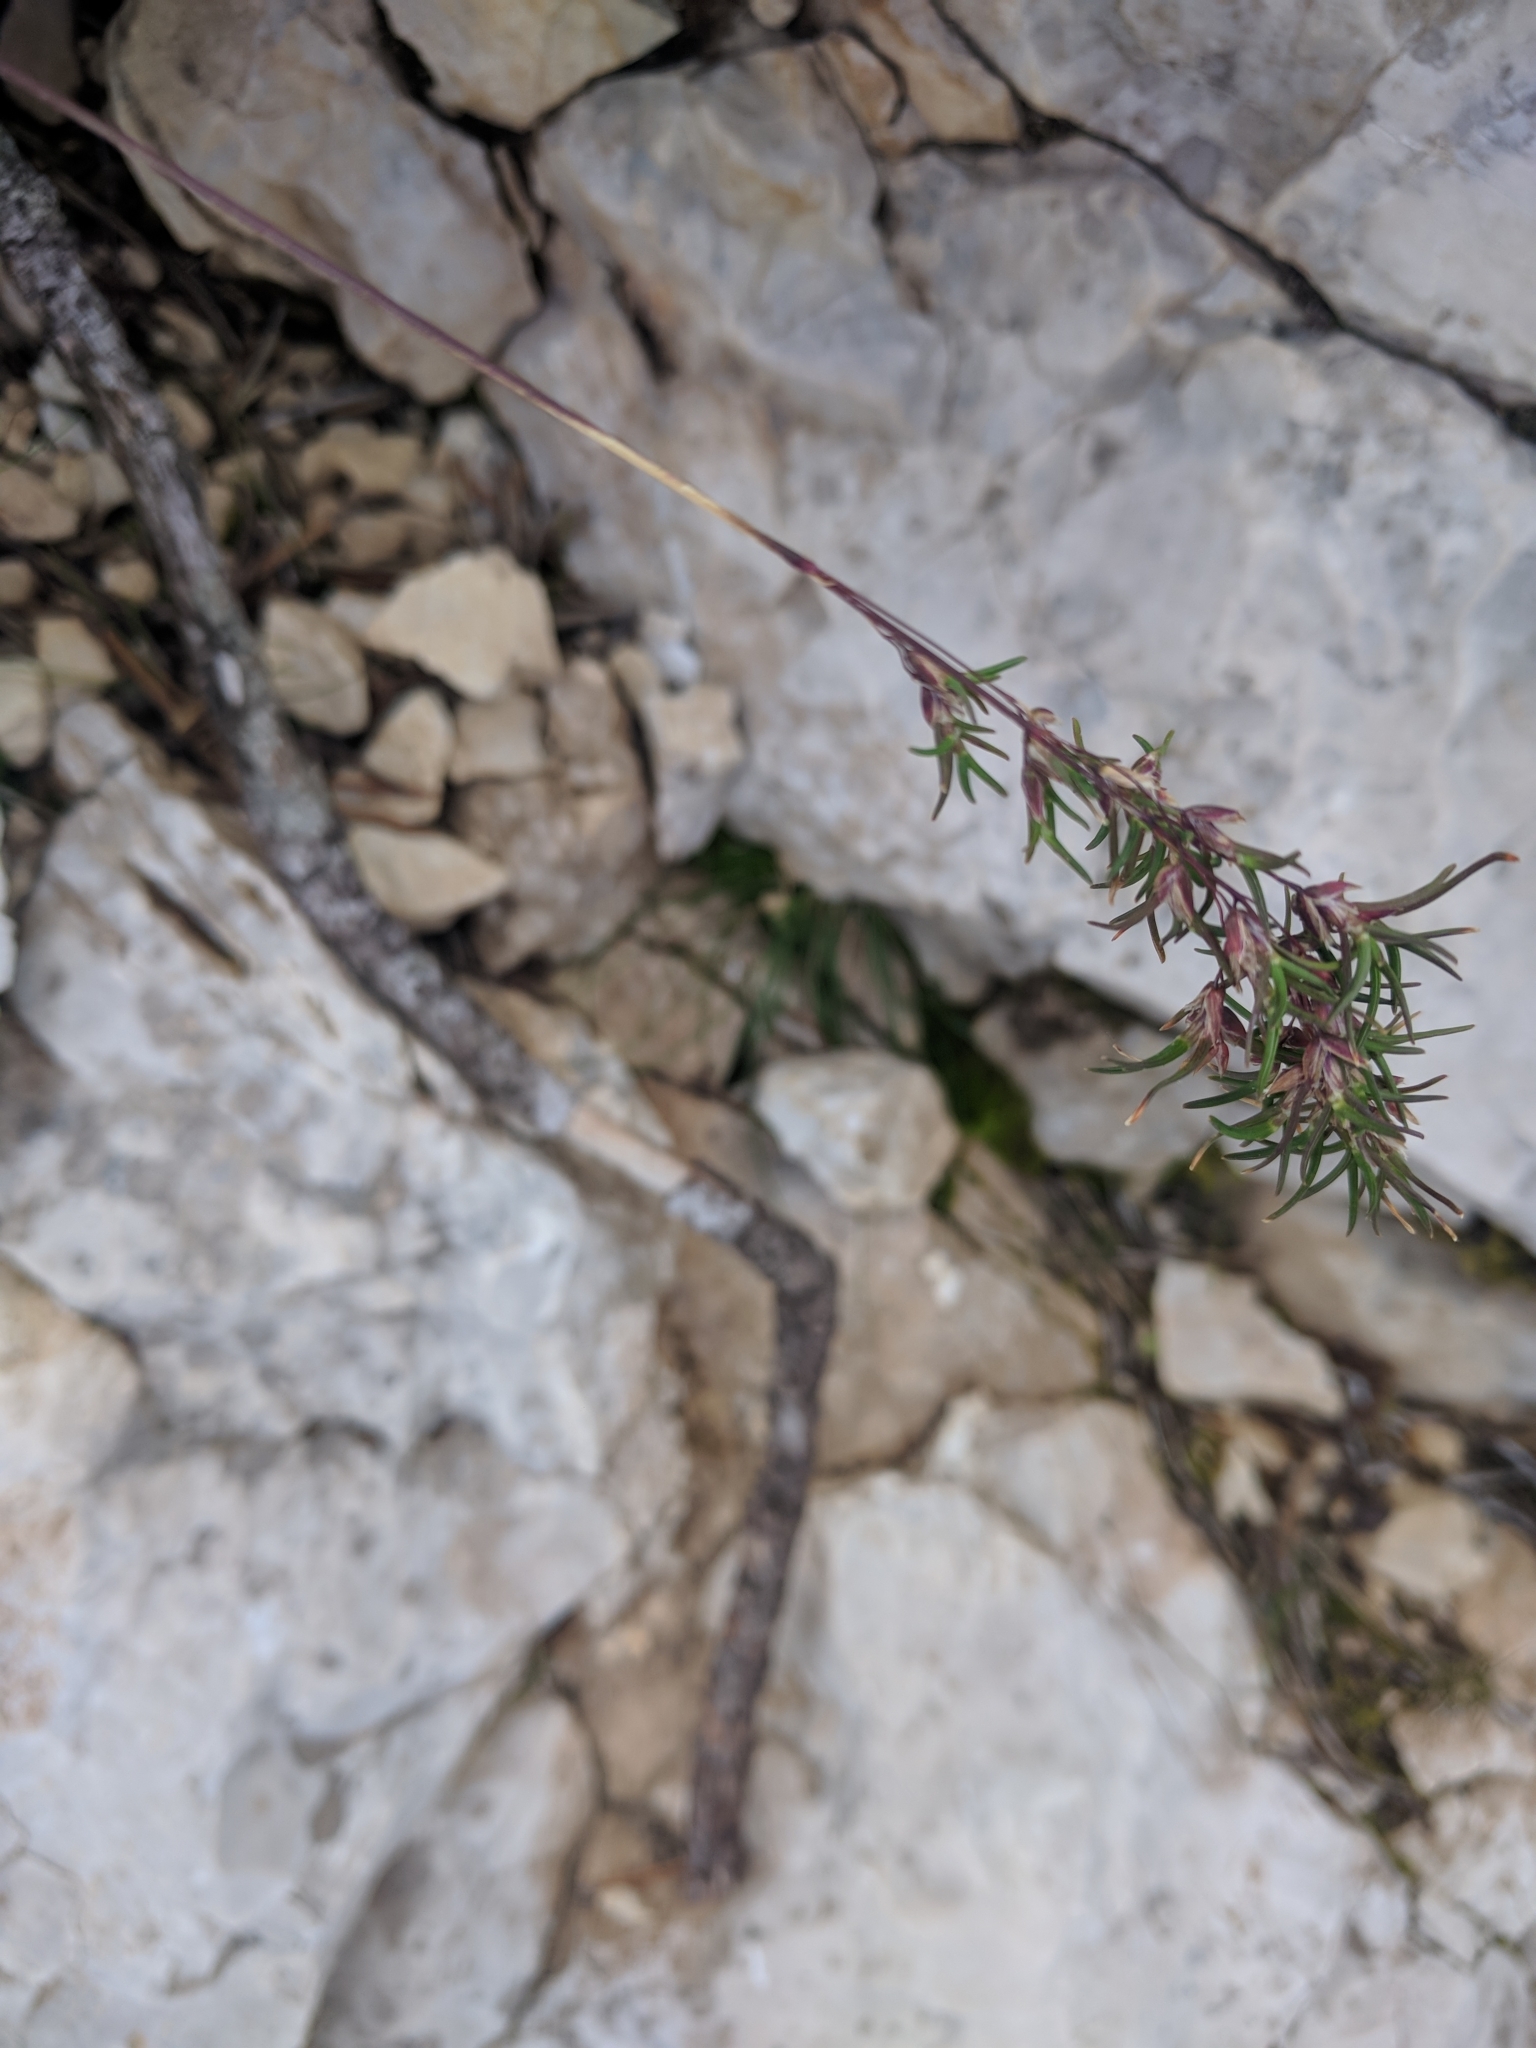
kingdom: Plantae
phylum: Tracheophyta
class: Liliopsida
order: Poales
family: Poaceae
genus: Poa
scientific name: Poa alpina
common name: Alpine bluegrass
